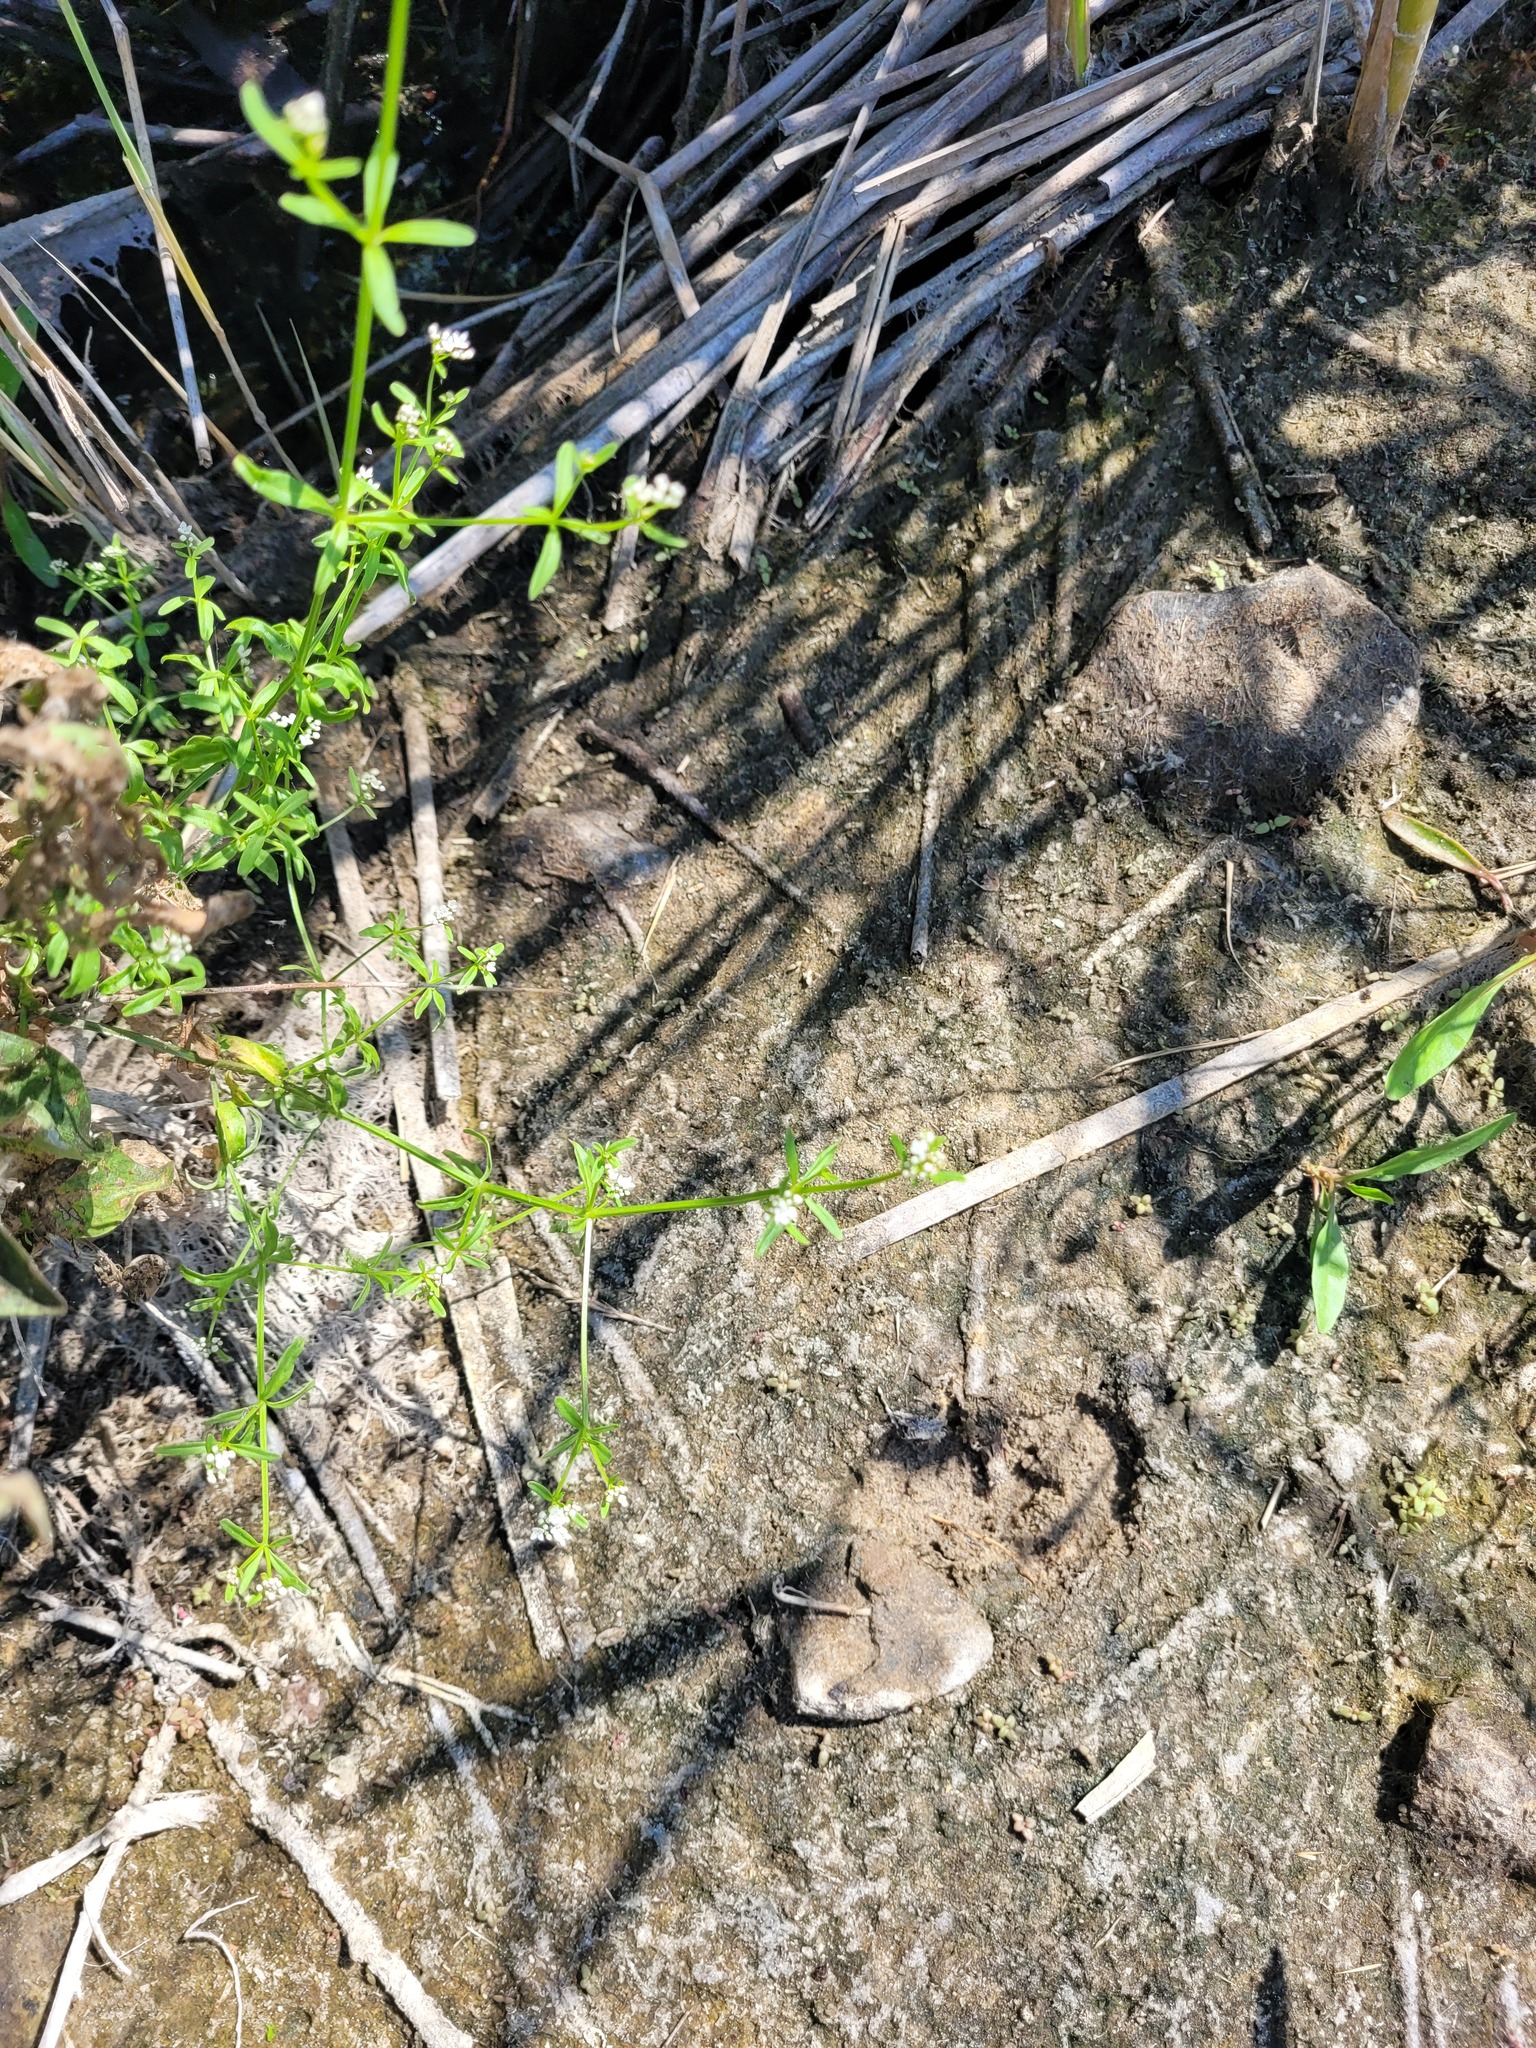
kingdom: Plantae
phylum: Tracheophyta
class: Magnoliopsida
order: Gentianales
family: Rubiaceae
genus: Galium
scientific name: Galium palustre
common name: Common marsh-bedstraw
